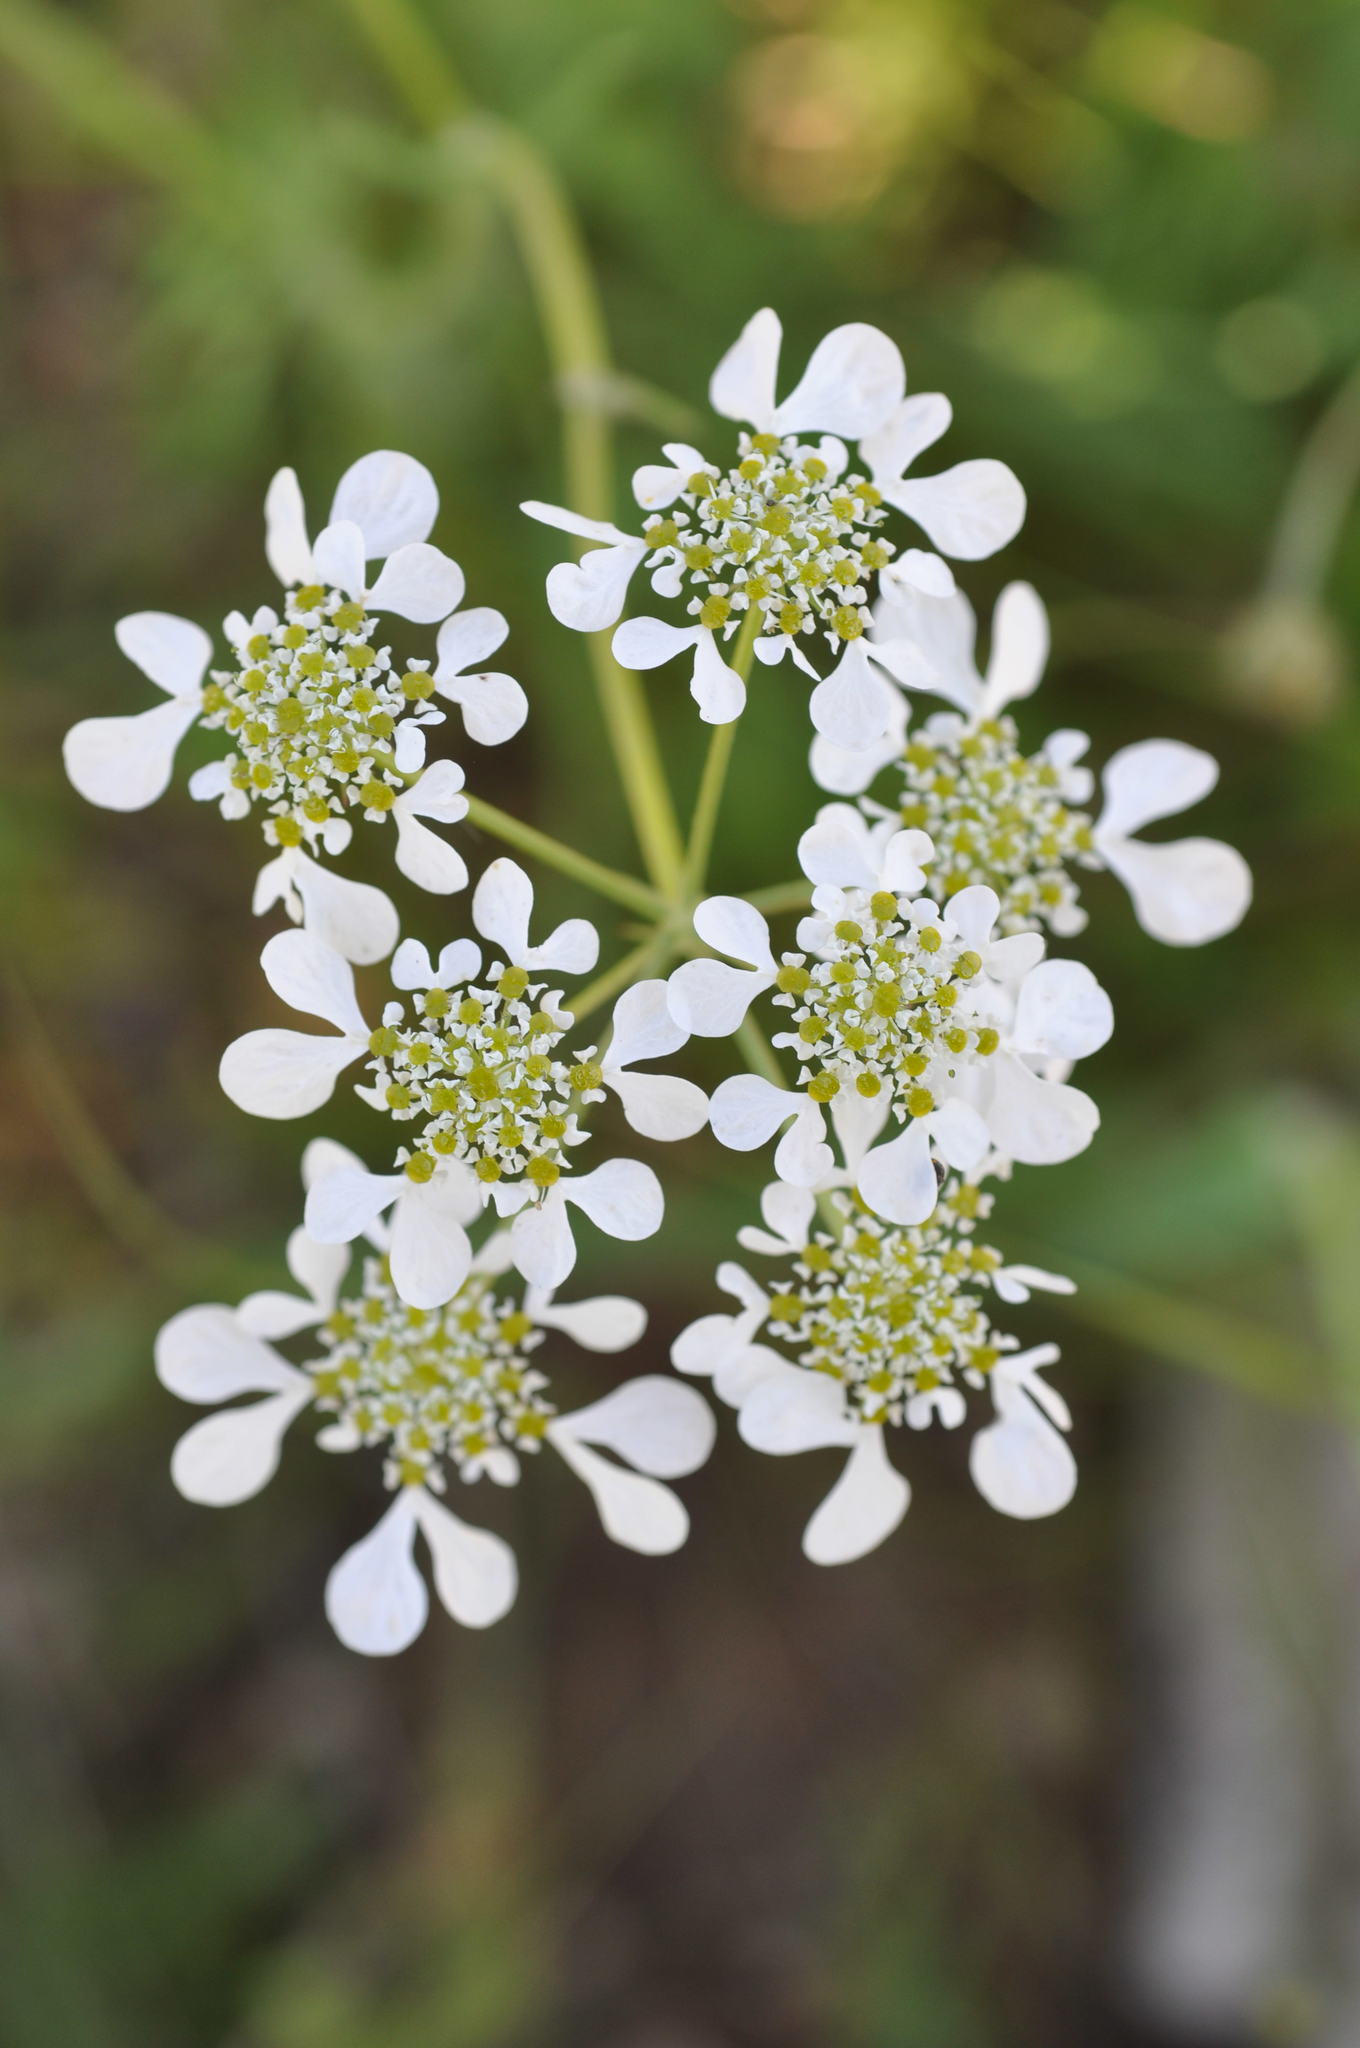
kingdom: Plantae
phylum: Tracheophyta
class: Magnoliopsida
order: Apiales
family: Apiaceae
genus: Tordylium
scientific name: Tordylium apulum
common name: Mediterranean hartwort
